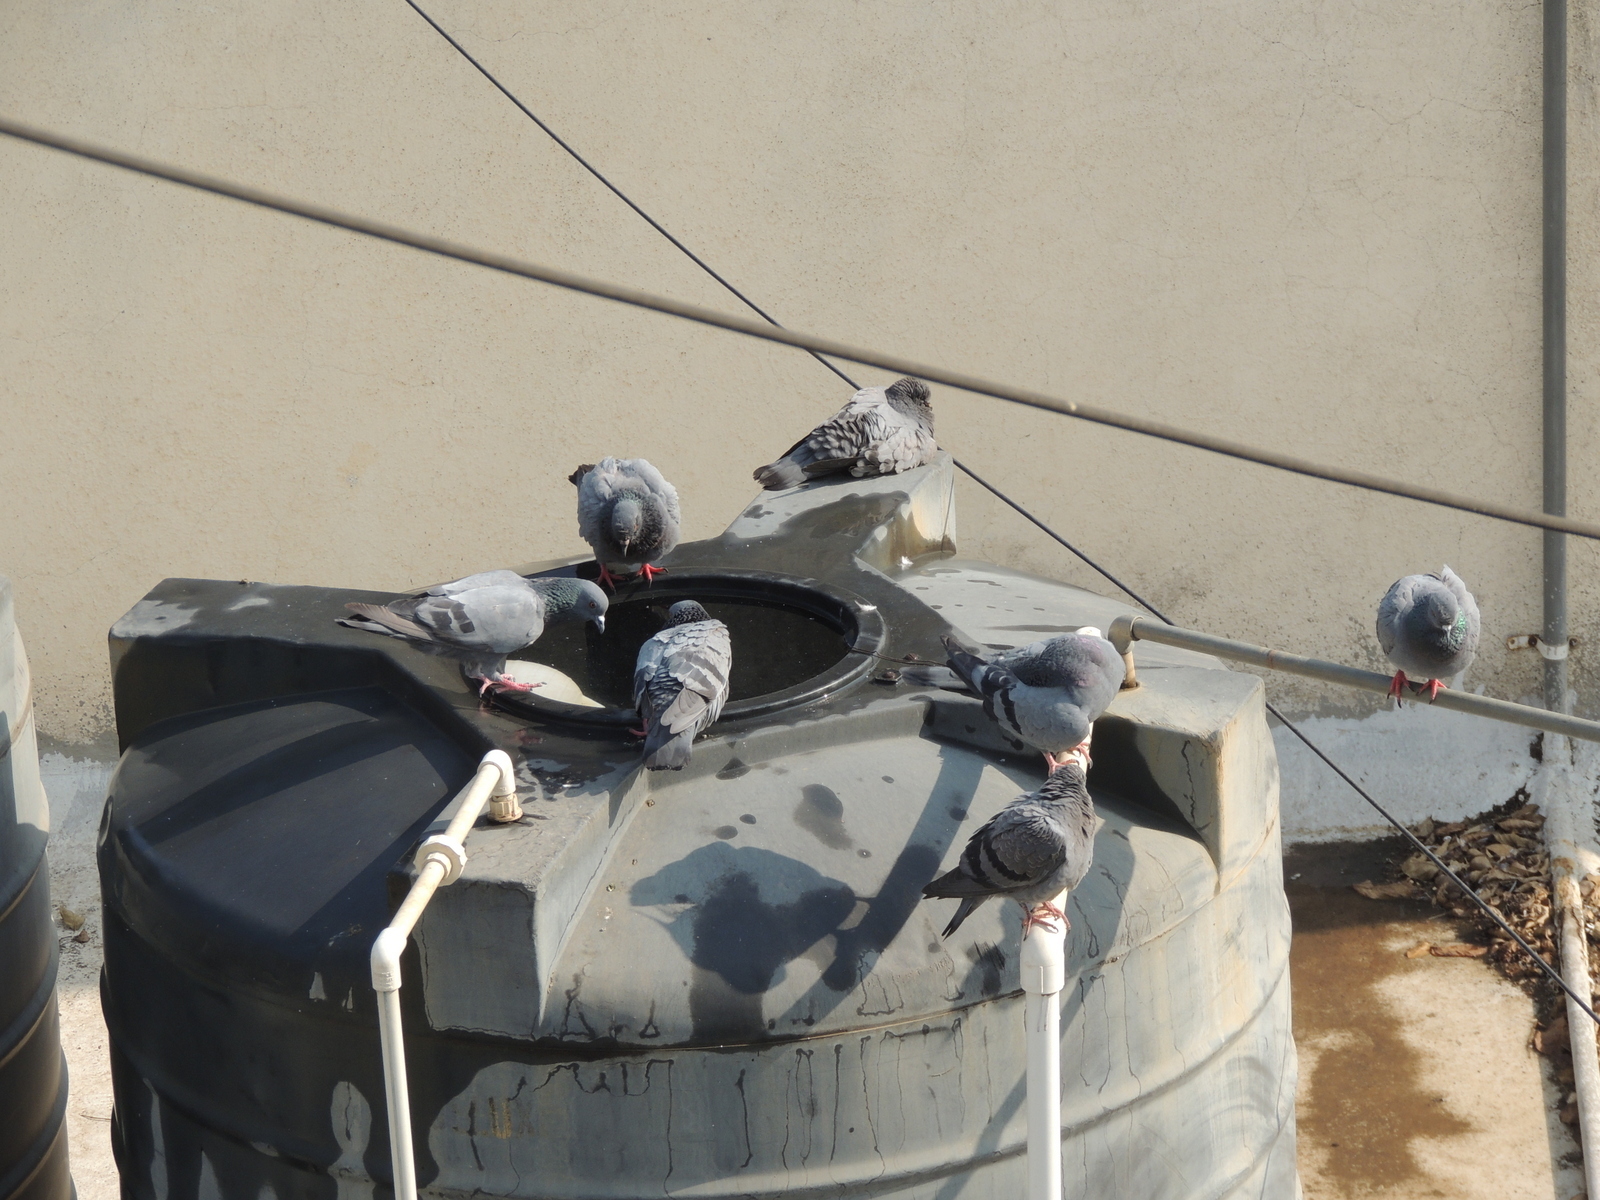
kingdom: Animalia
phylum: Chordata
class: Aves
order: Columbiformes
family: Columbidae
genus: Columba
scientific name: Columba livia
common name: Rock pigeon
